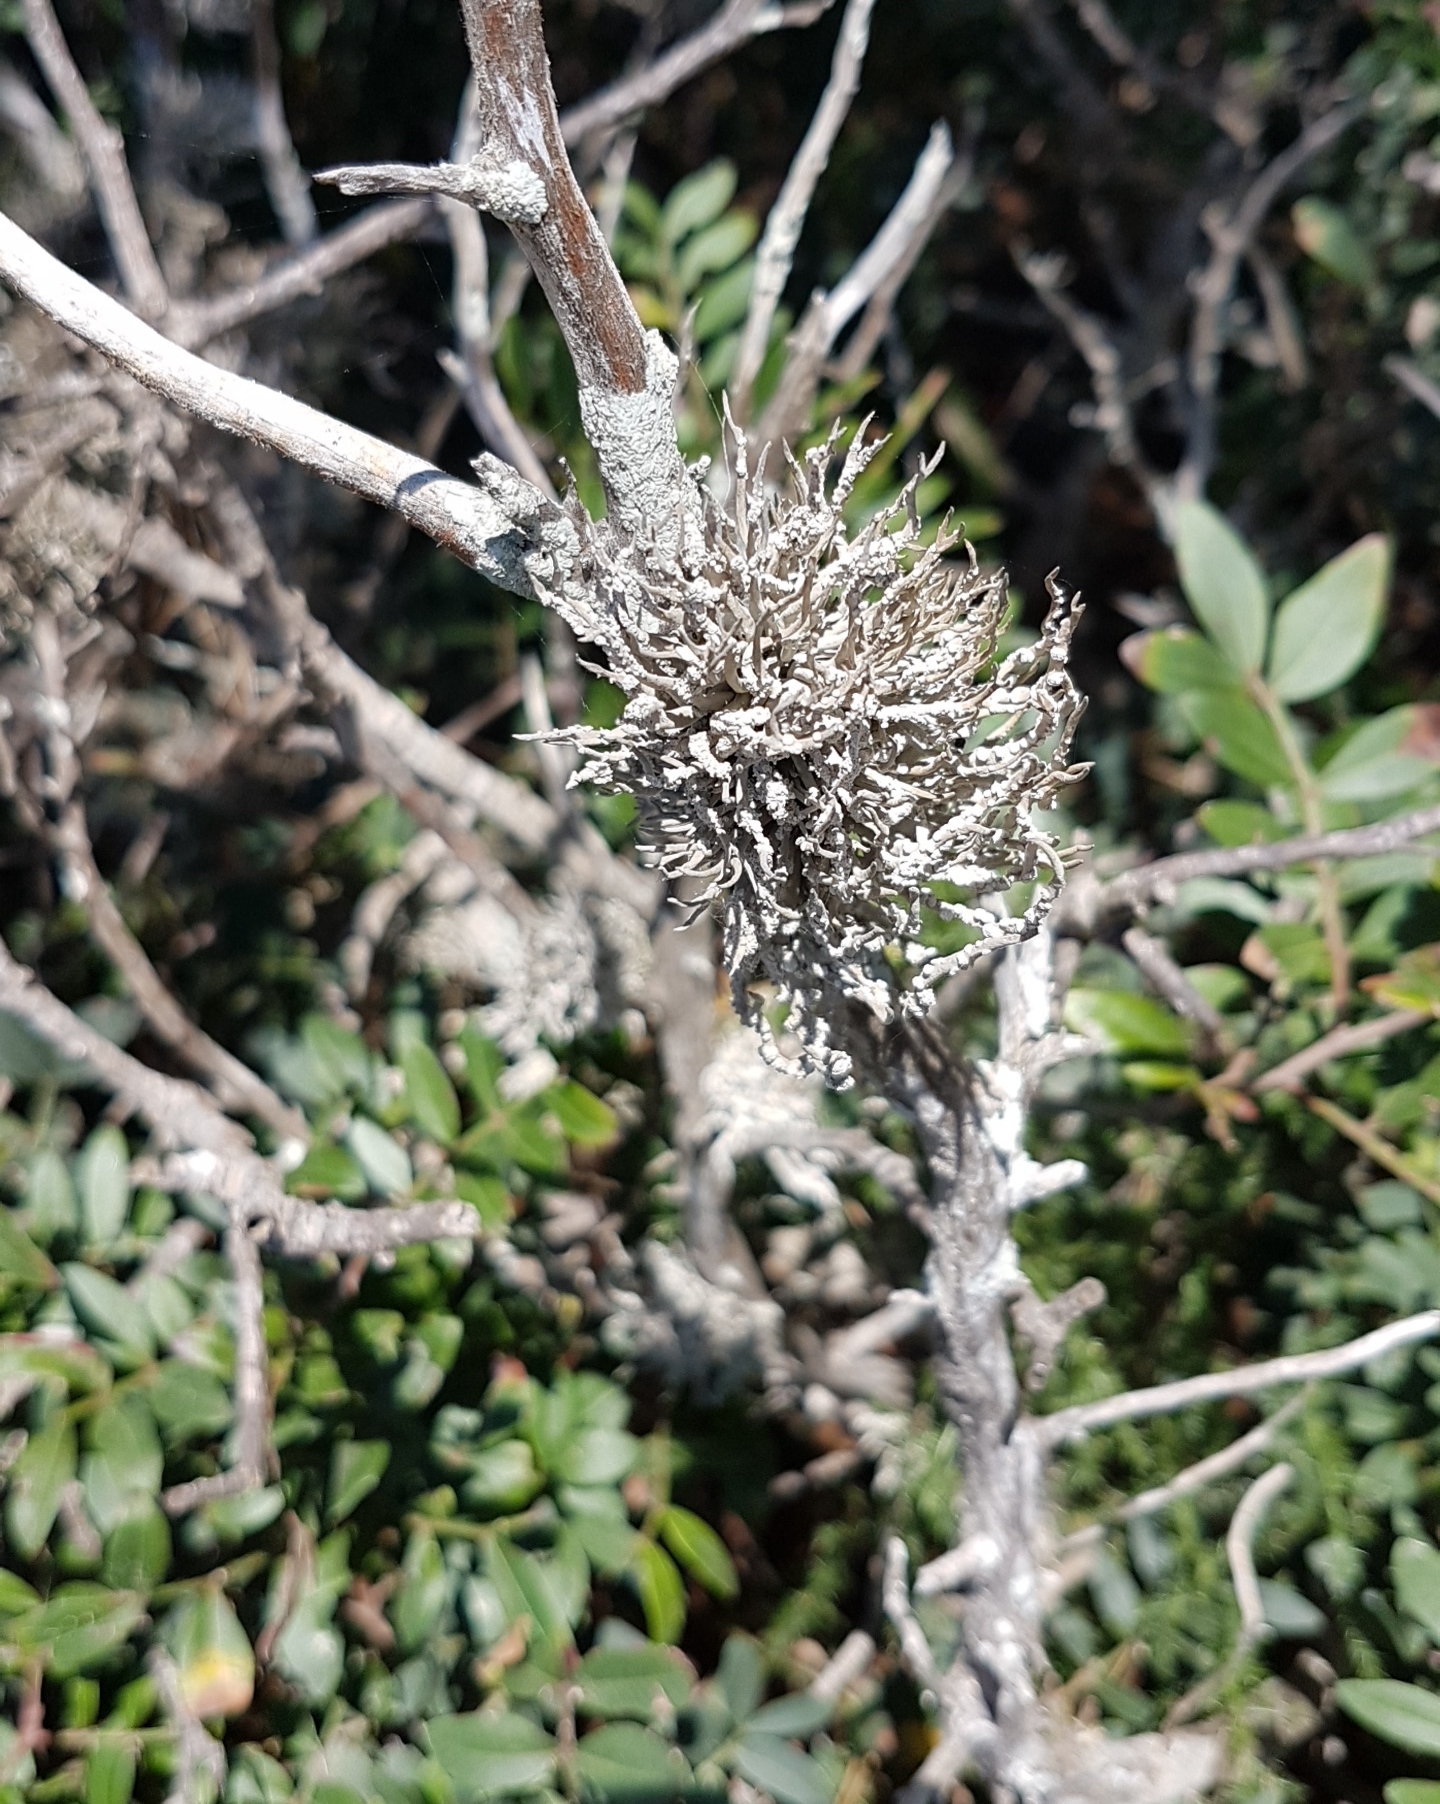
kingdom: Fungi
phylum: Ascomycota
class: Arthoniomycetes
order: Arthoniales
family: Roccellaceae
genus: Roccella
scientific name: Roccella phycopsis
